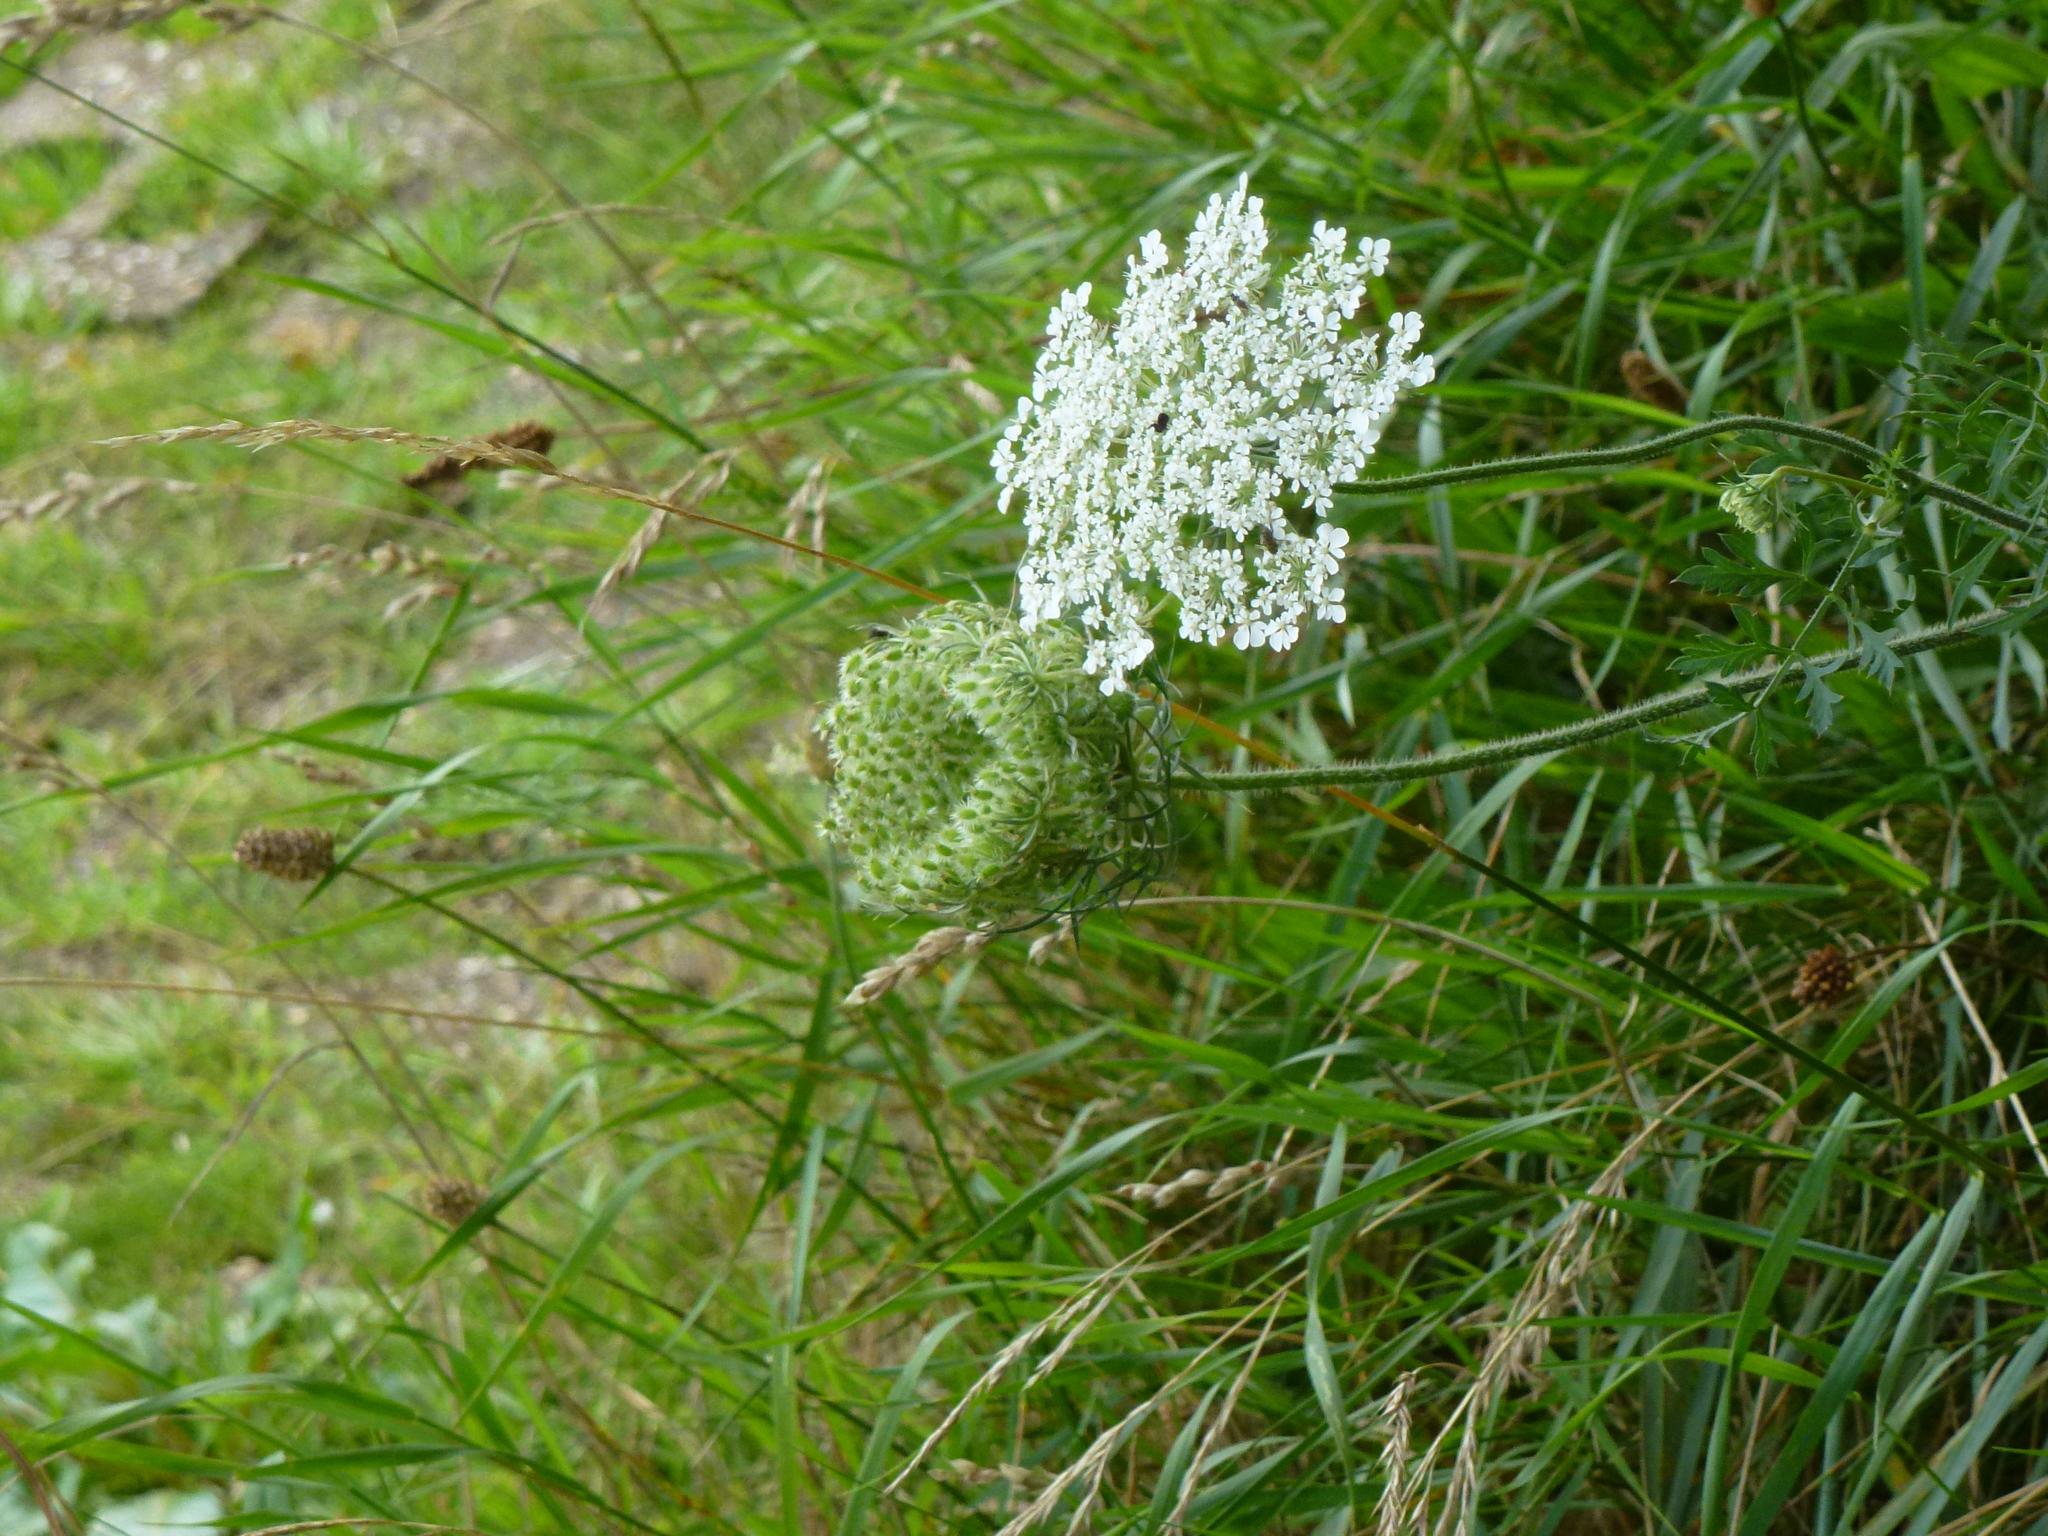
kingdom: Plantae
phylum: Tracheophyta
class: Magnoliopsida
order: Apiales
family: Apiaceae
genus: Daucus
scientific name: Daucus carota
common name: Wild carrot
